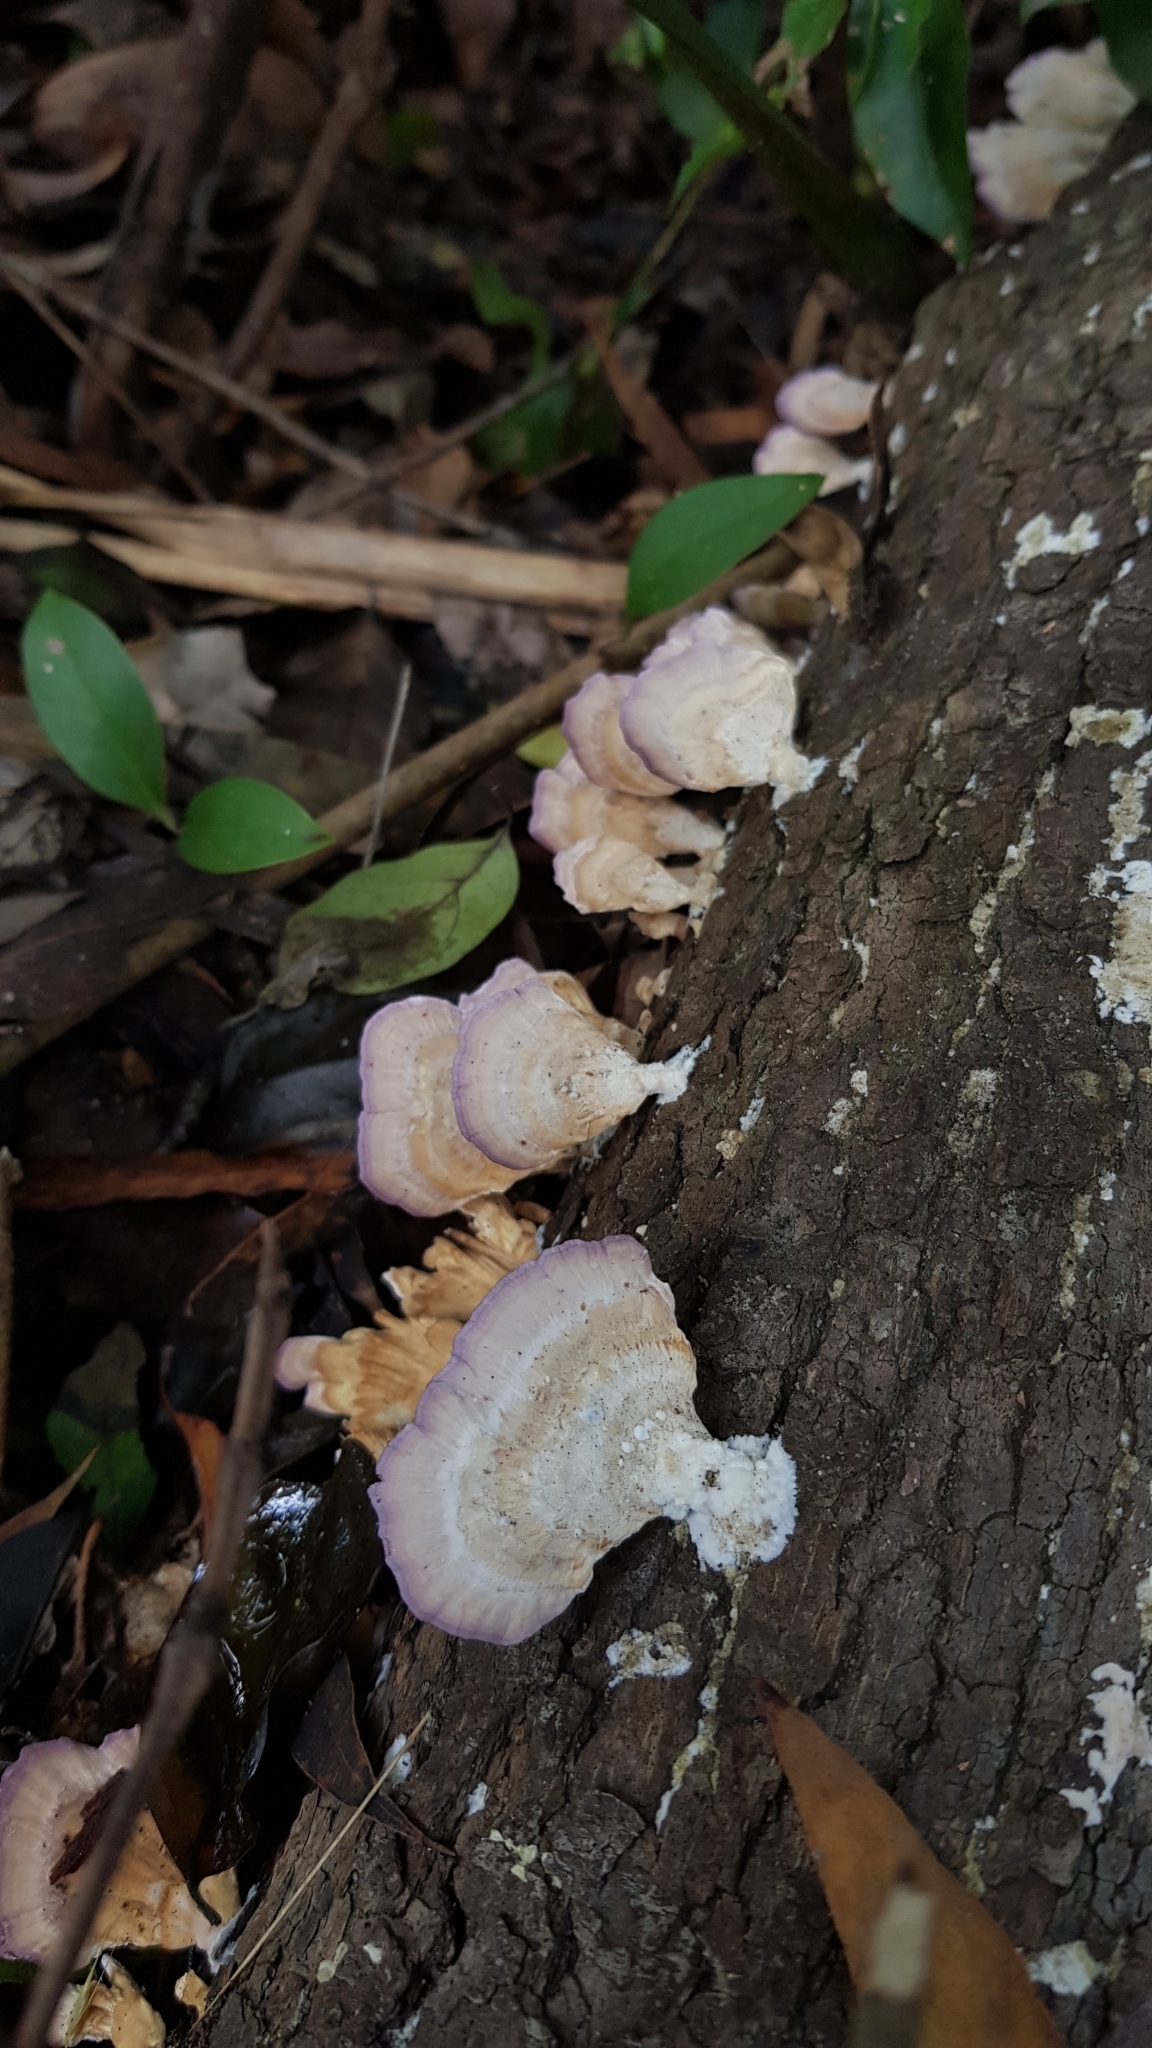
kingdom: Fungi
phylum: Basidiomycota
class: Agaricomycetes
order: Hymenochaetales
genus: Trichaptum
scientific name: Trichaptum biforme
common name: Violet-toothed polypore
